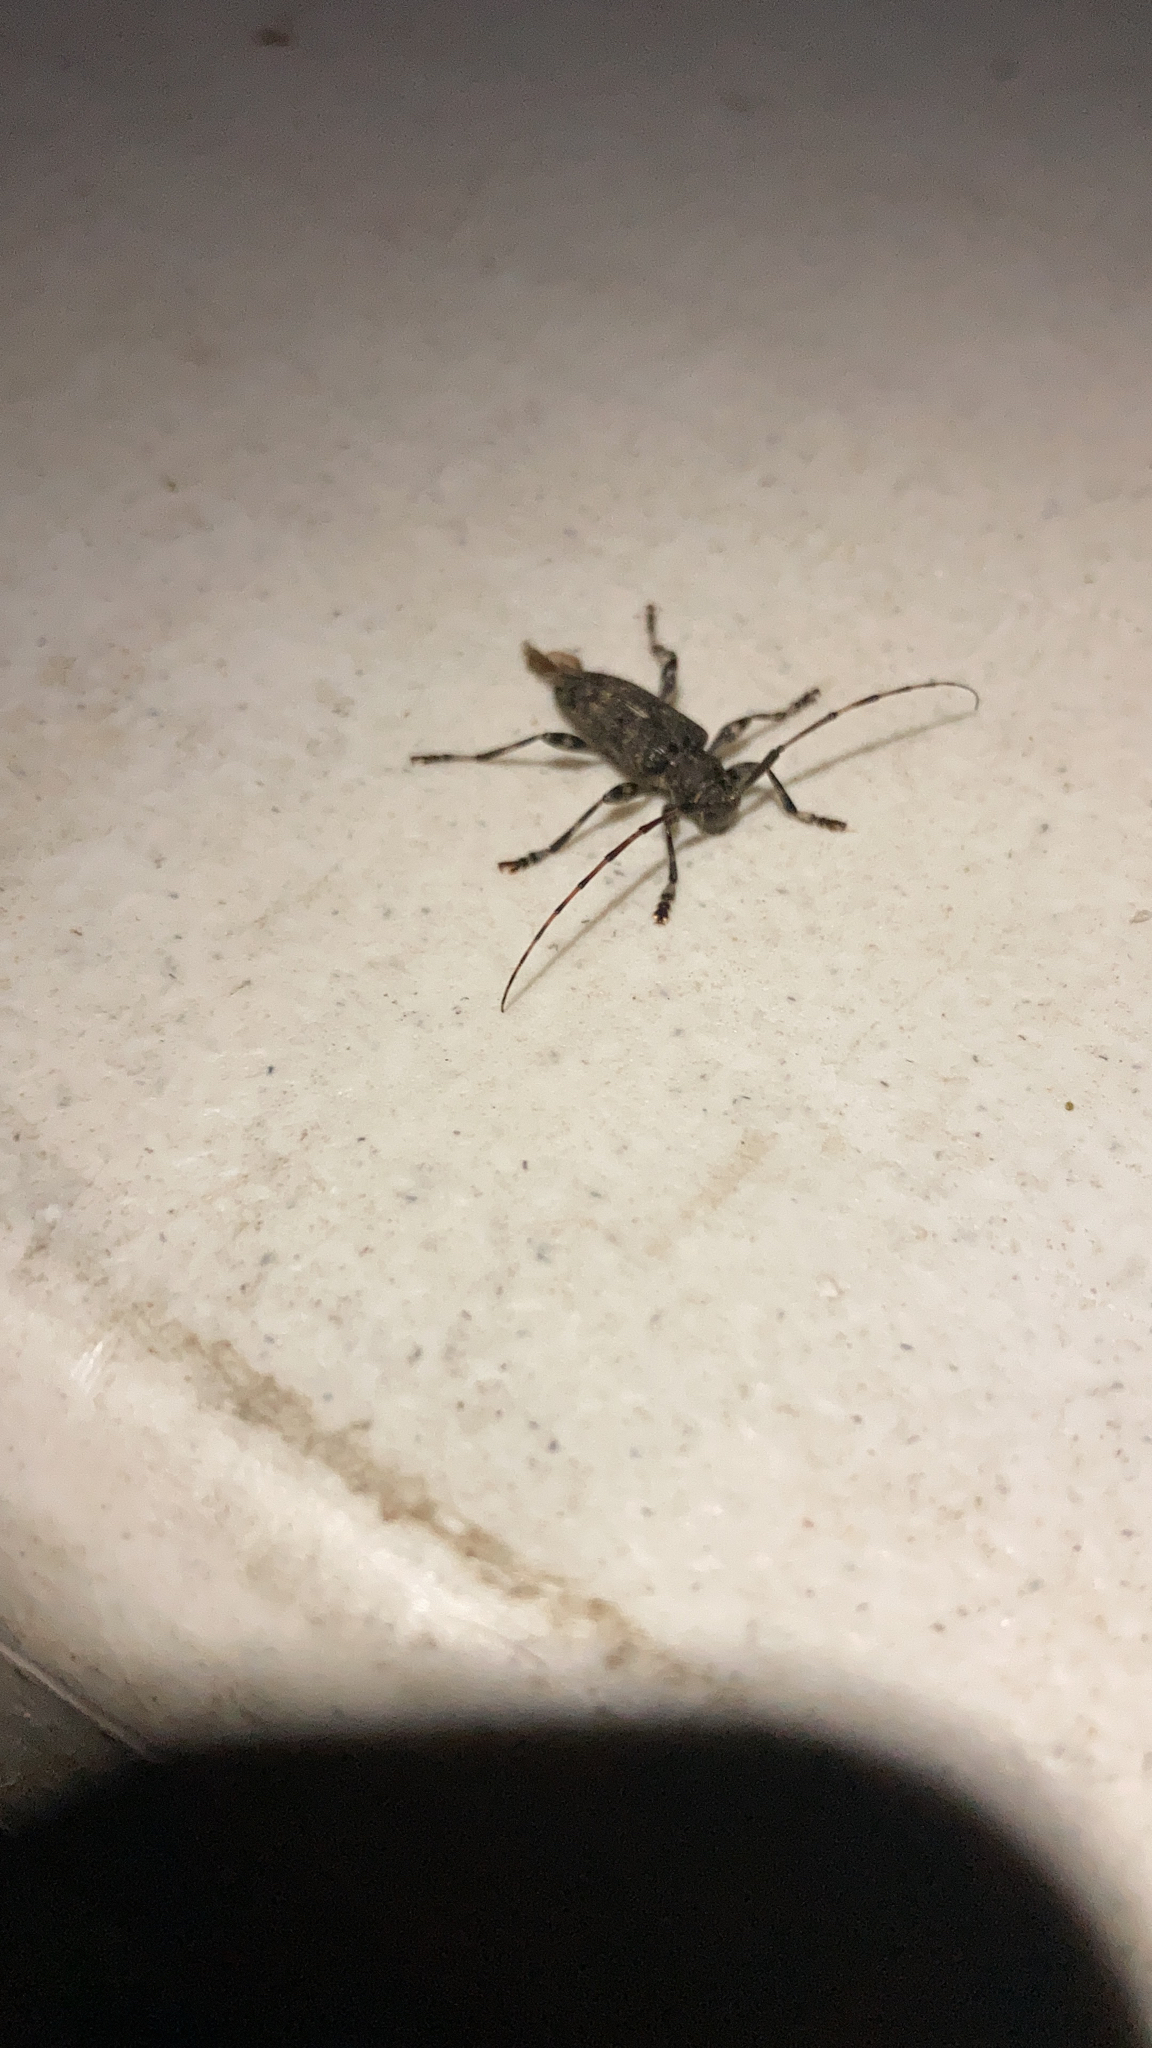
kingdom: Animalia
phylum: Arthropoda
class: Insecta
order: Coleoptera
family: Cerambycidae
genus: Graphisurus
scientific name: Graphisurus fasciatus
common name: Banded graphisurus
